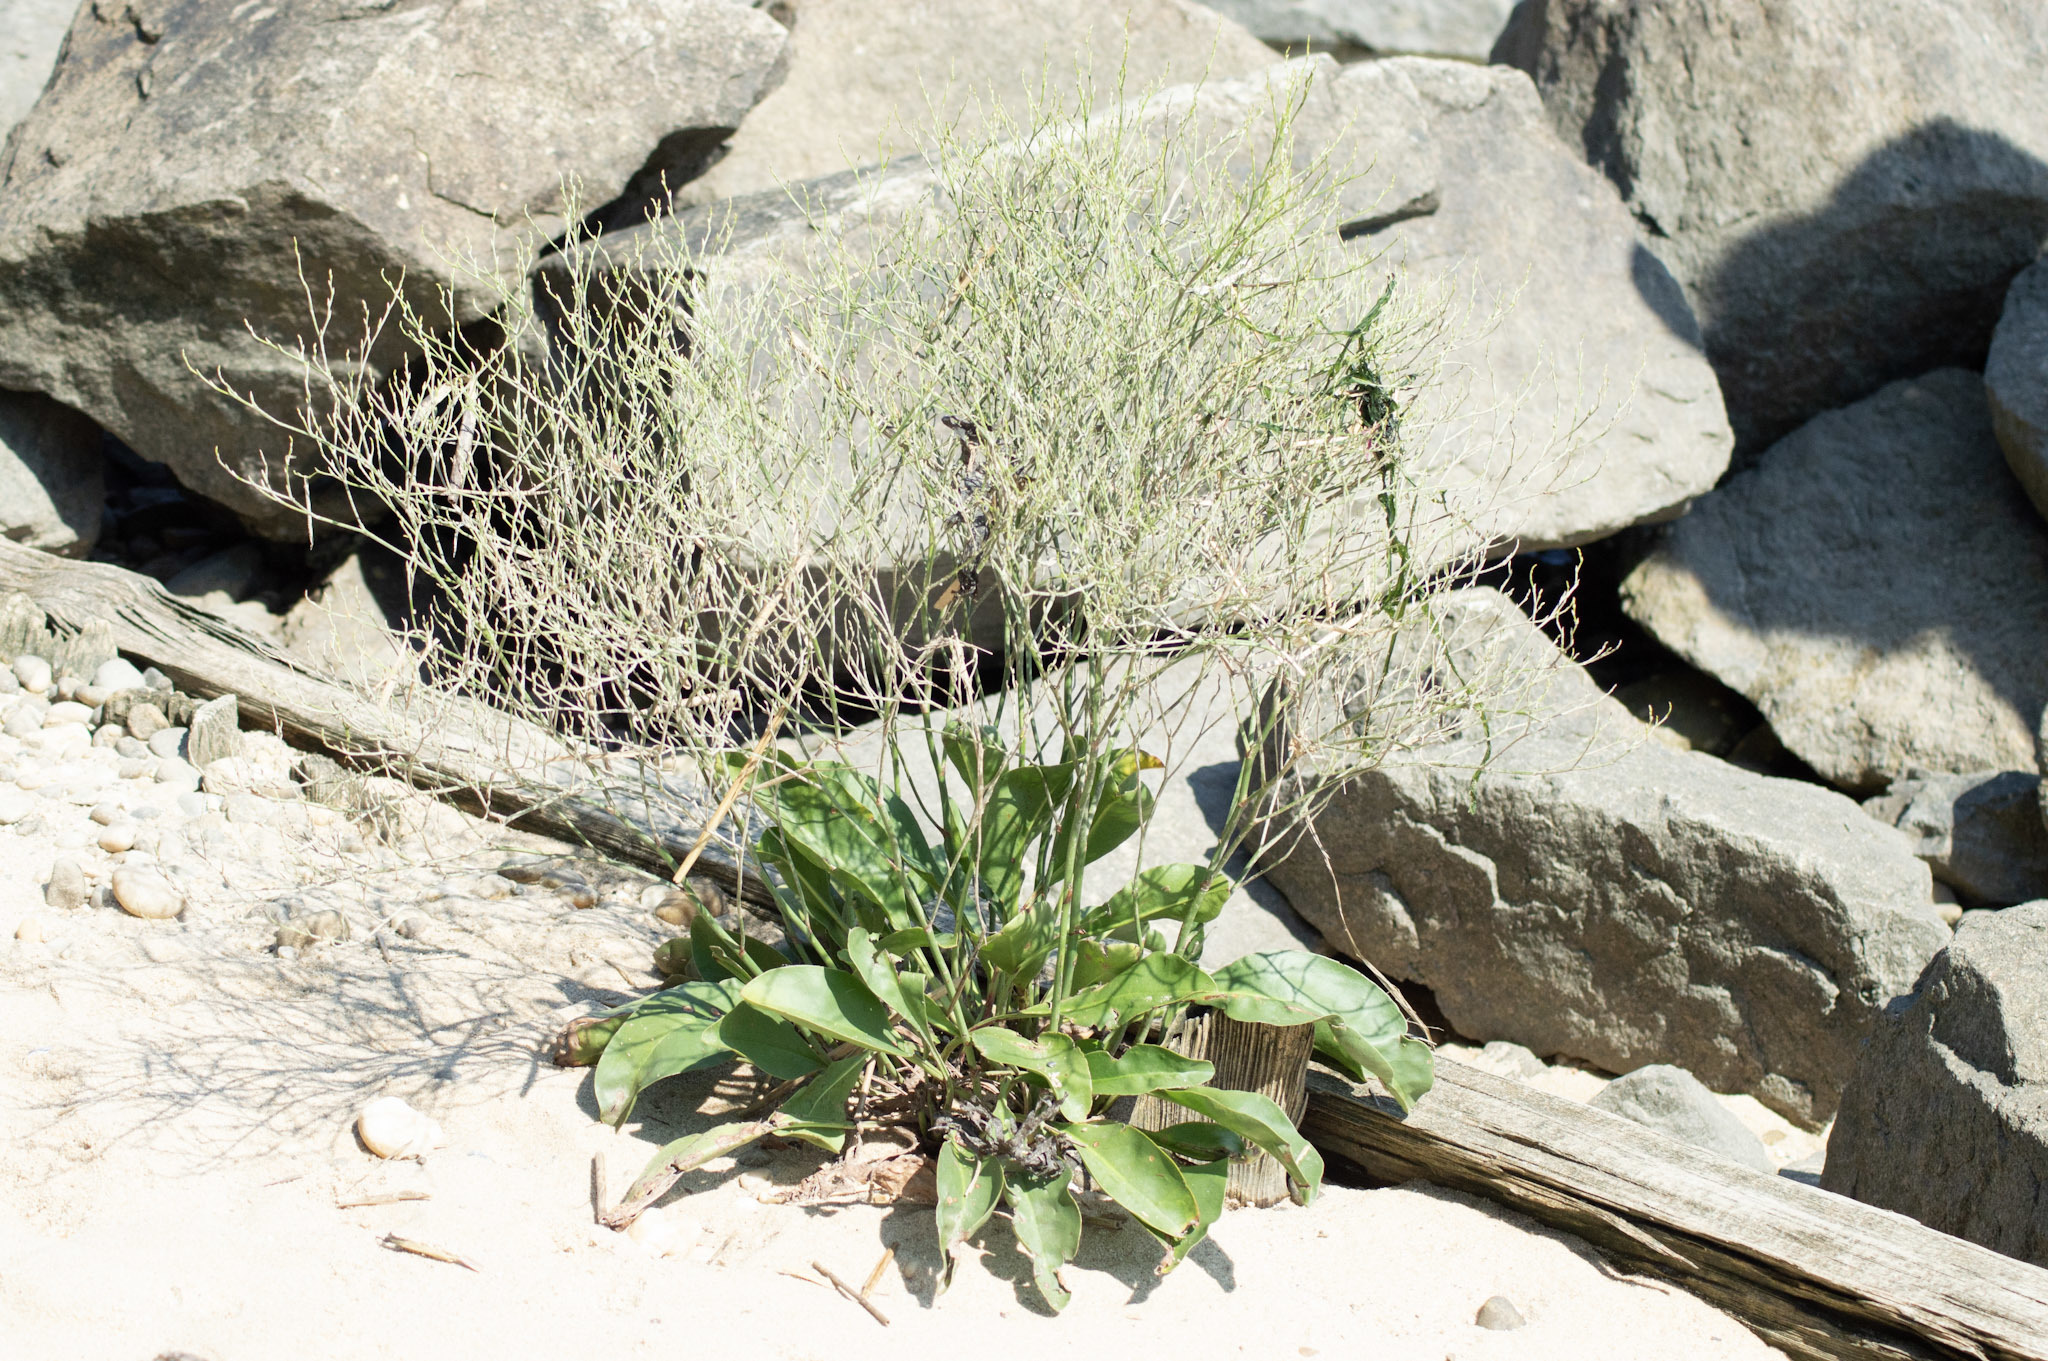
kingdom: Plantae
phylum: Tracheophyta
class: Magnoliopsida
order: Caryophyllales
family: Plumbaginaceae
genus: Limonium
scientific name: Limonium carolinianum
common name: Carolina sea lavender
